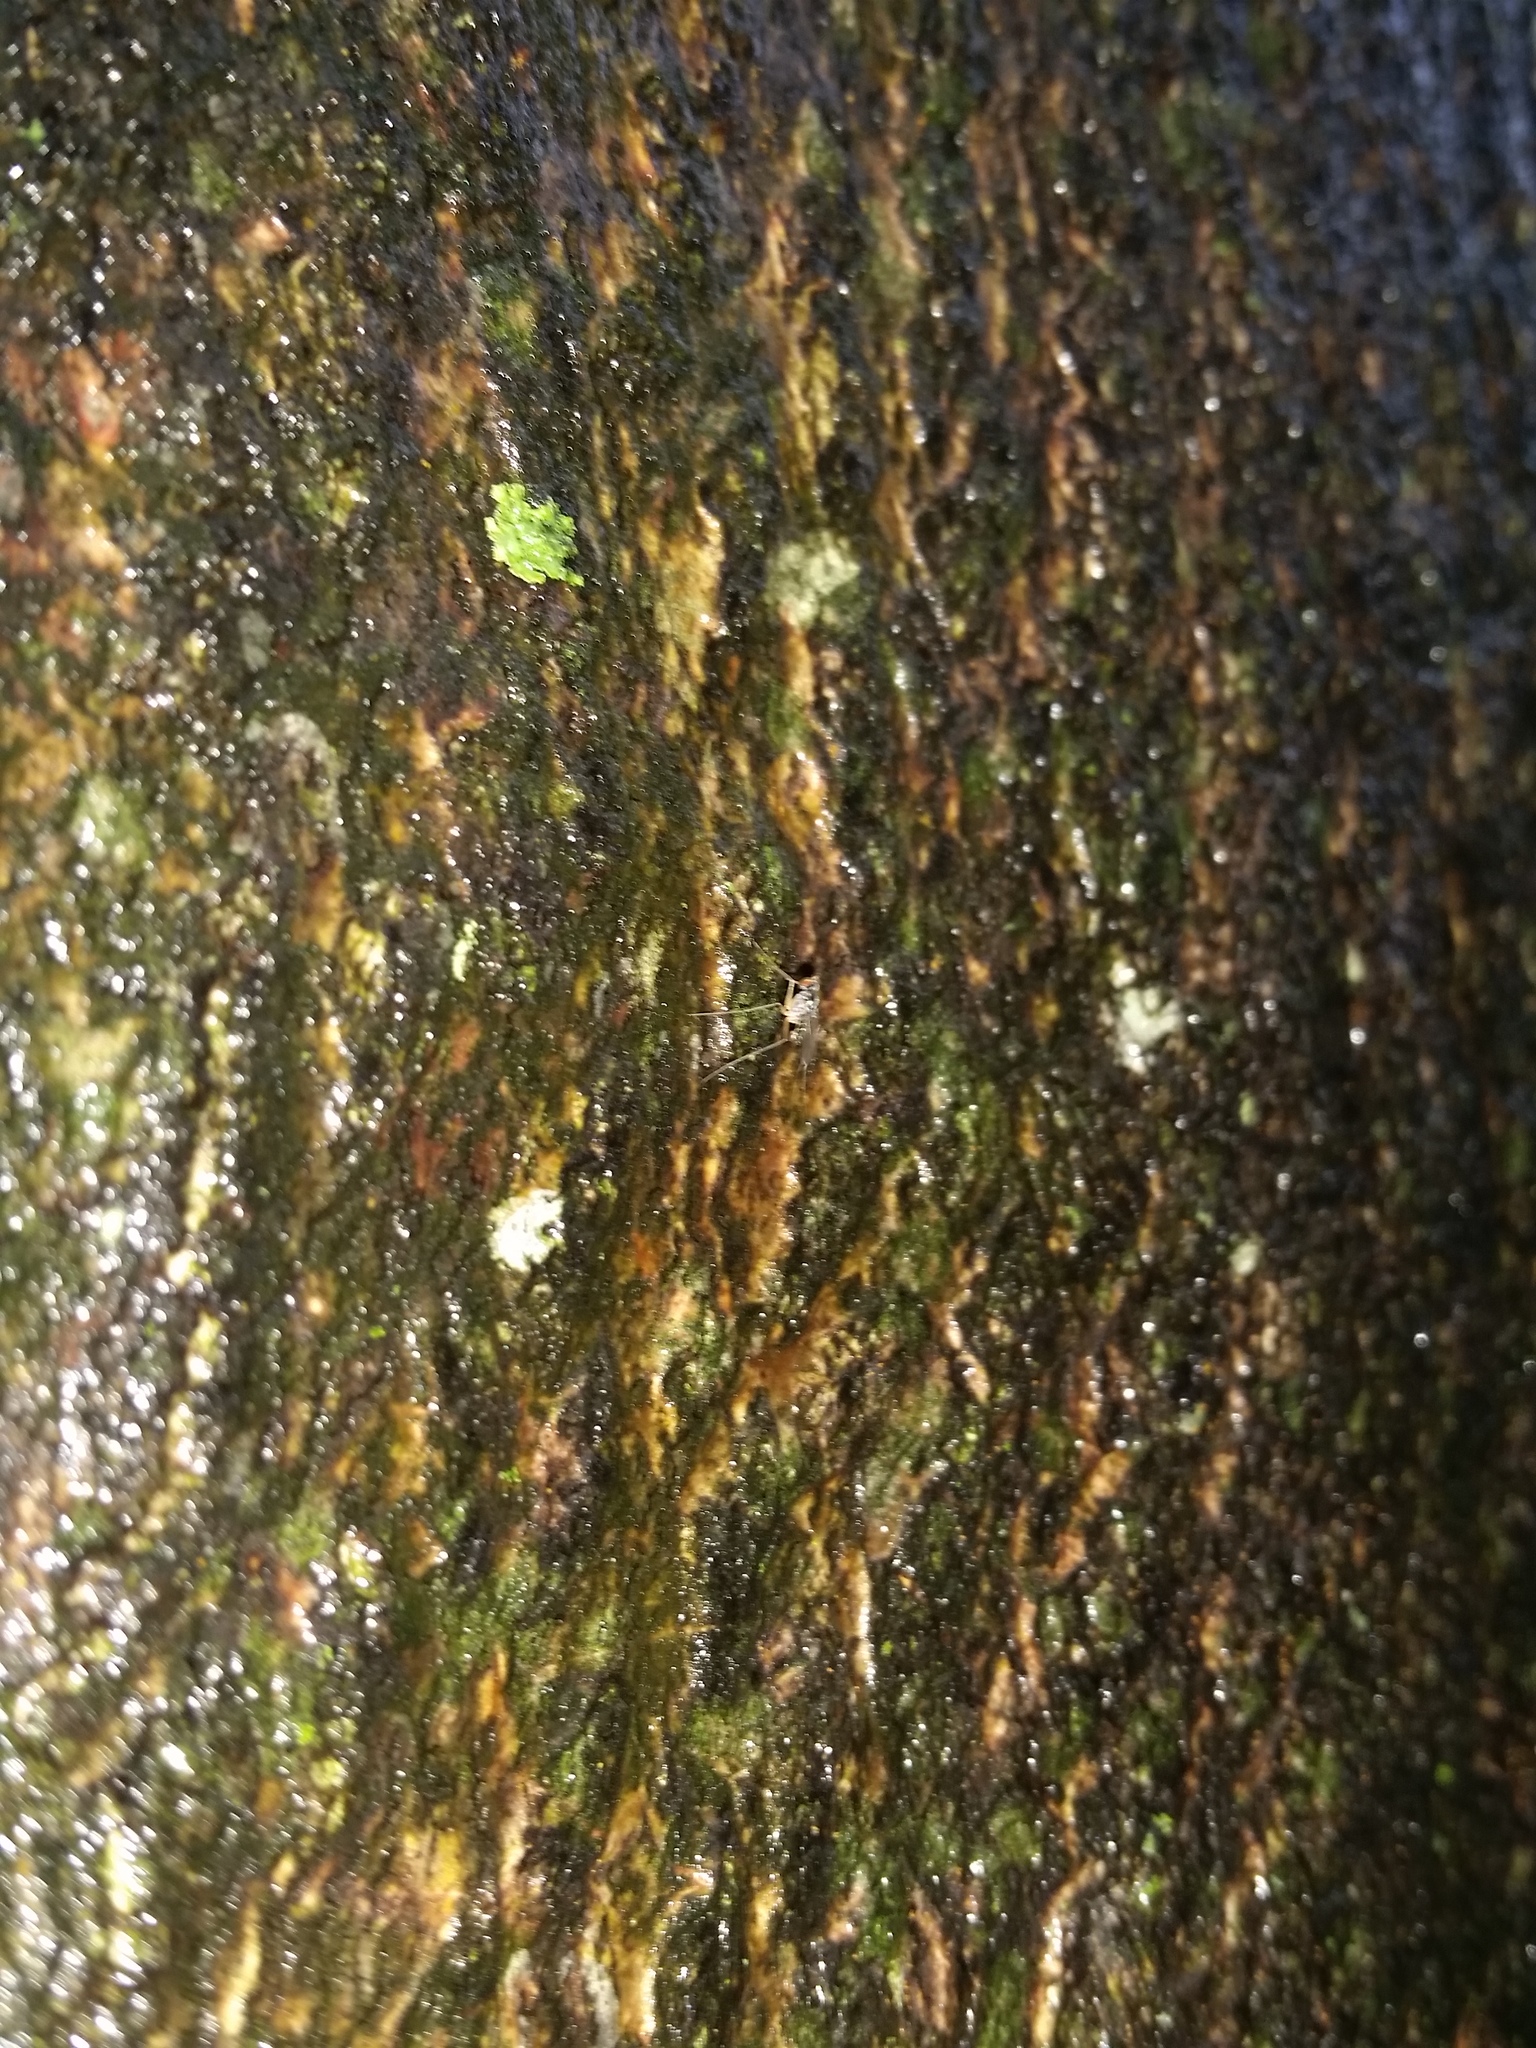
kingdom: Animalia
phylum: Arthropoda
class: Insecta
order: Diptera
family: Dolichopodidae
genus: Dactylomyia
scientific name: Dactylomyia lateralis
